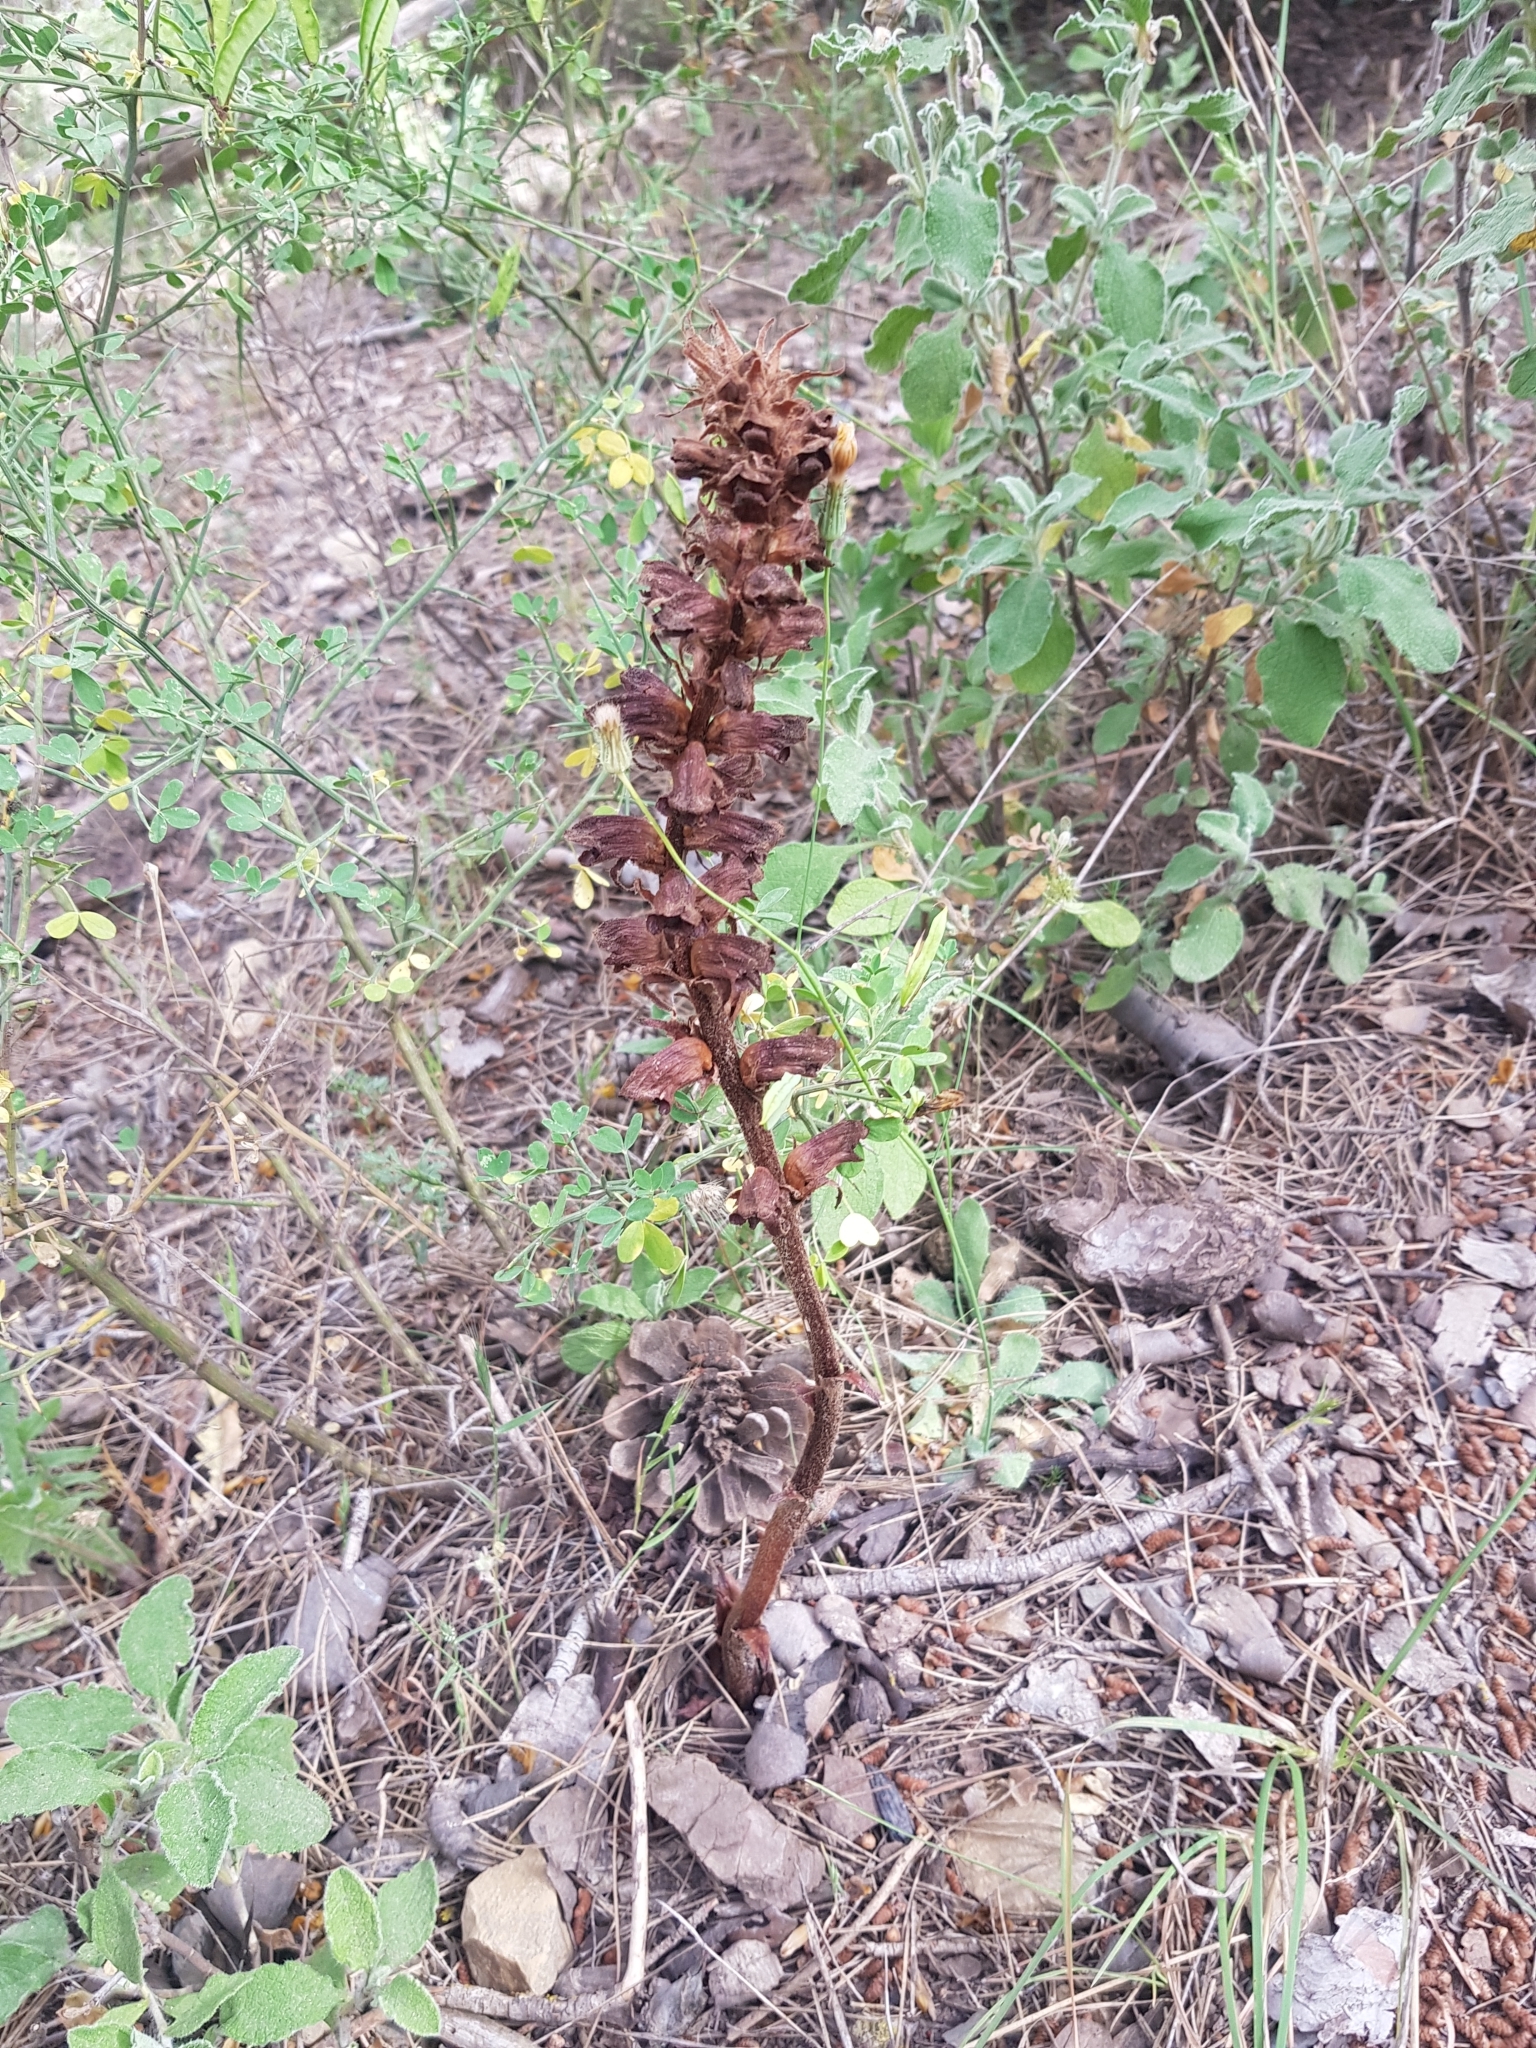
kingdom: Plantae
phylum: Tracheophyta
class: Magnoliopsida
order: Lamiales
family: Orobanchaceae
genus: Orobanche
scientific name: Orobanche variegata
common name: Variegated broomrape
